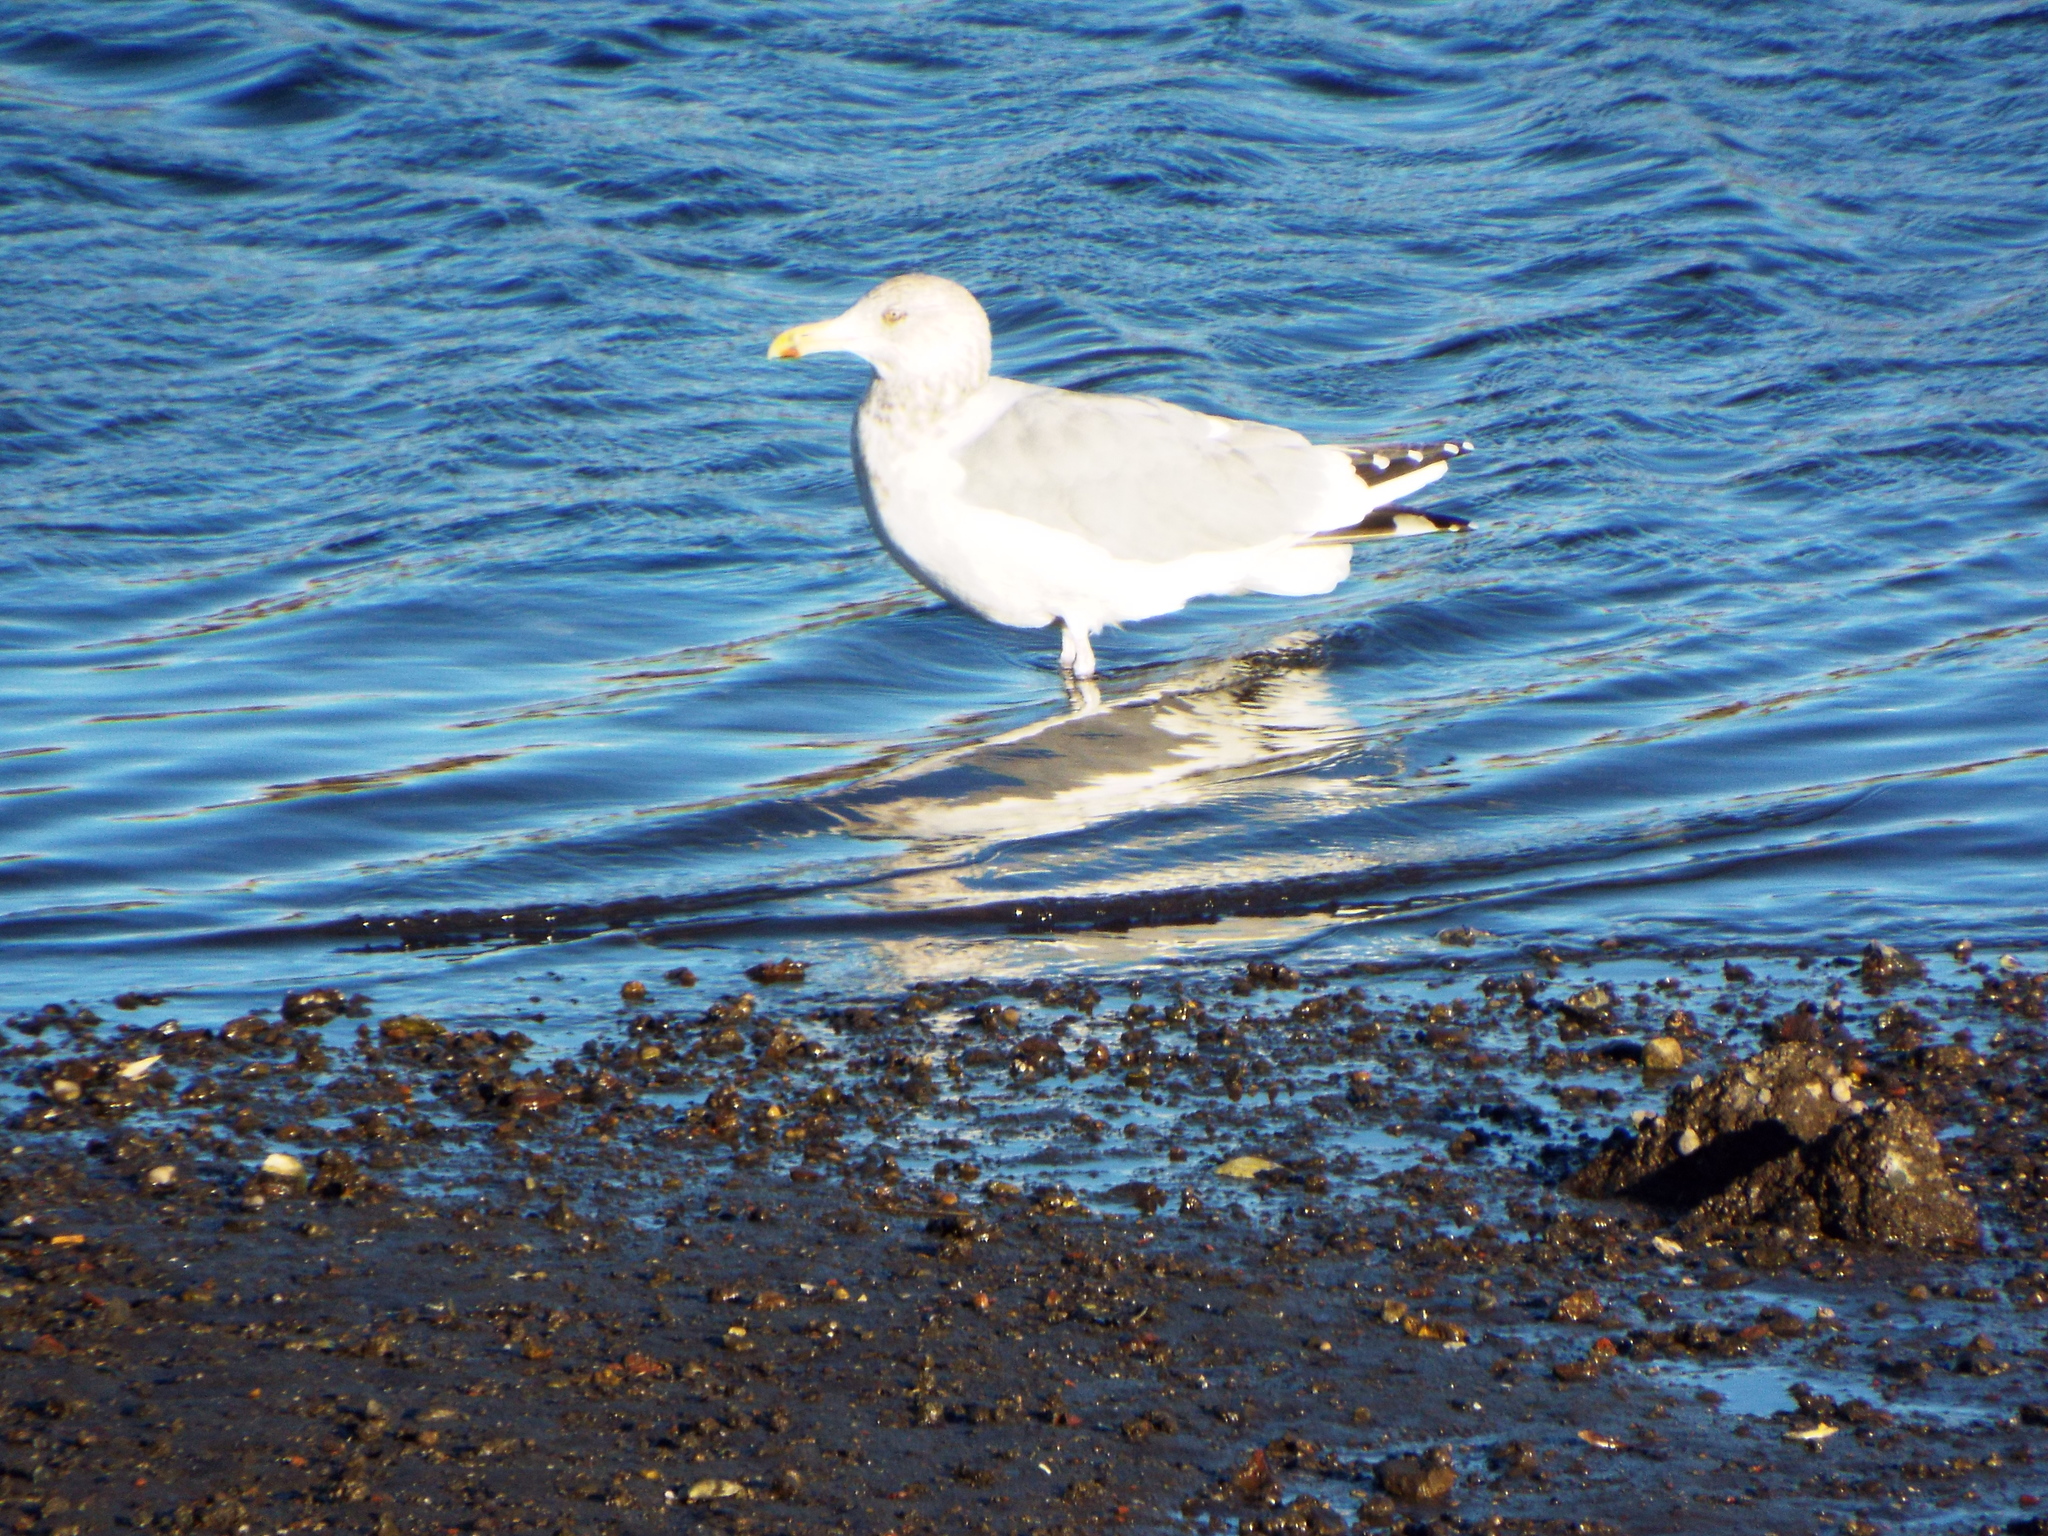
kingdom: Animalia
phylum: Chordata
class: Aves
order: Charadriiformes
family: Laridae
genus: Larus
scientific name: Larus argentatus
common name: Herring gull
